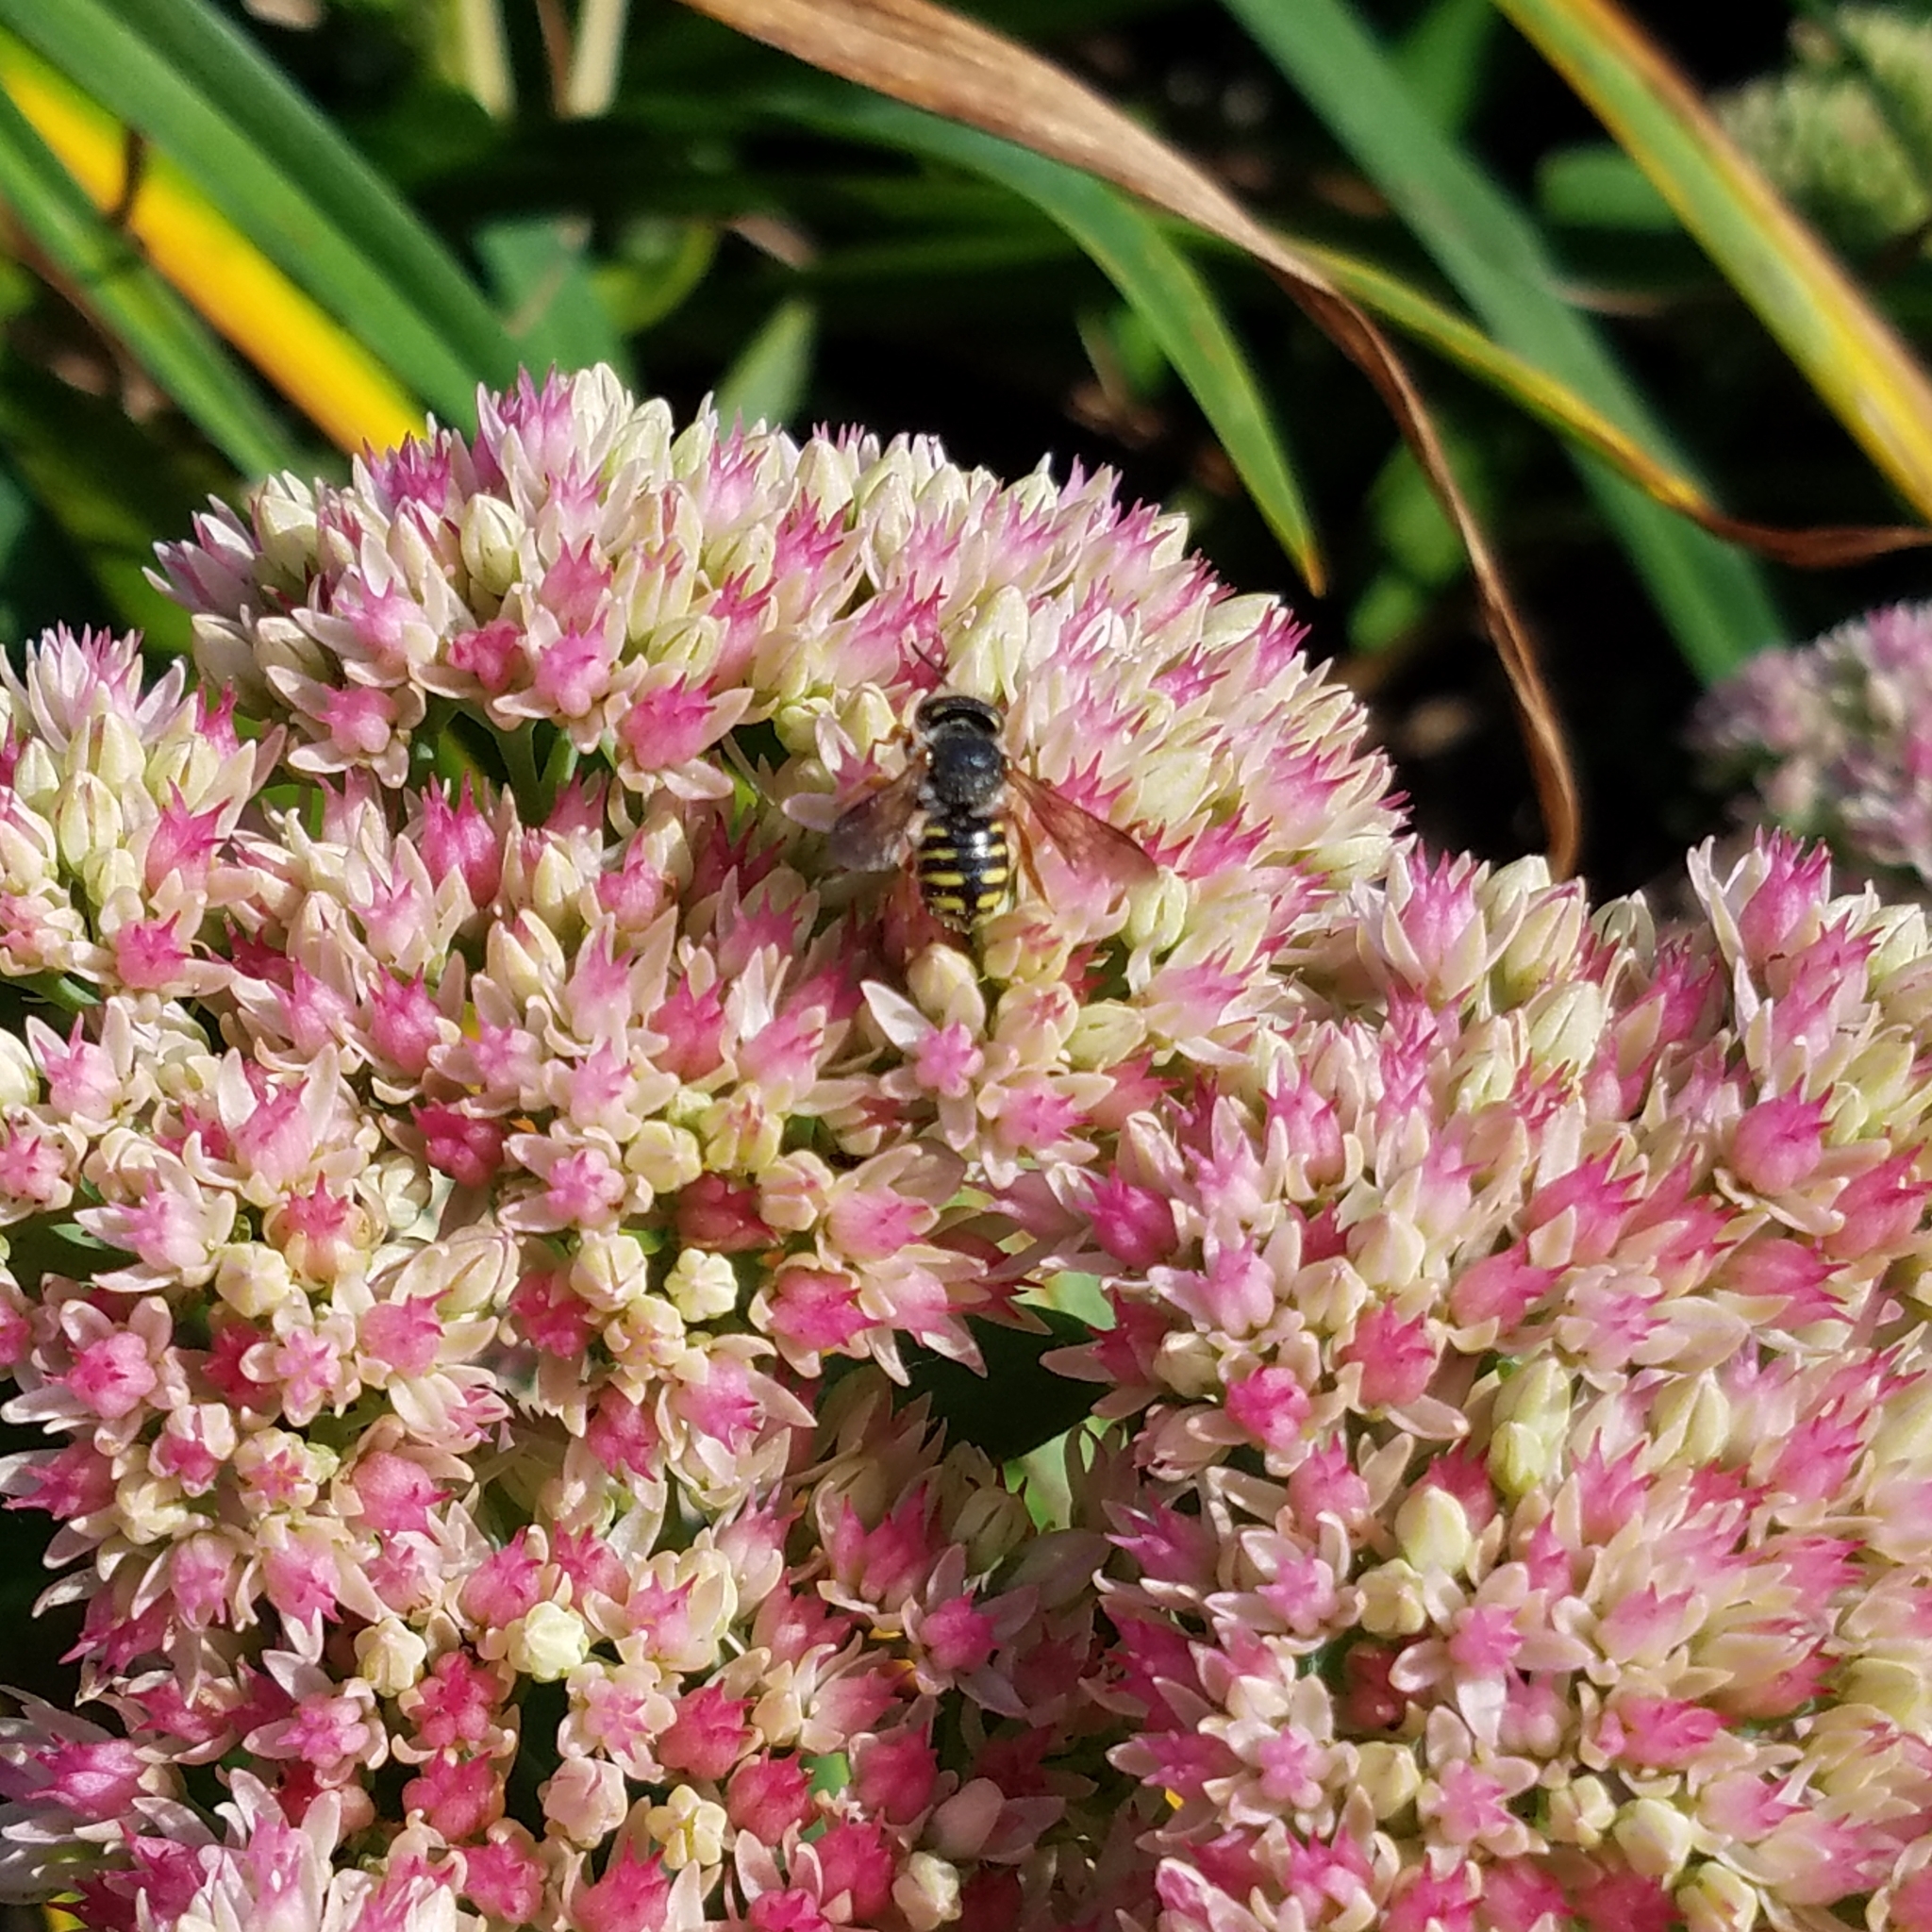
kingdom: Animalia
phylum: Arthropoda
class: Insecta
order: Hymenoptera
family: Megachilidae
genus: Anthidium
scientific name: Anthidium oblongatum
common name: Oblong wool carder bee
